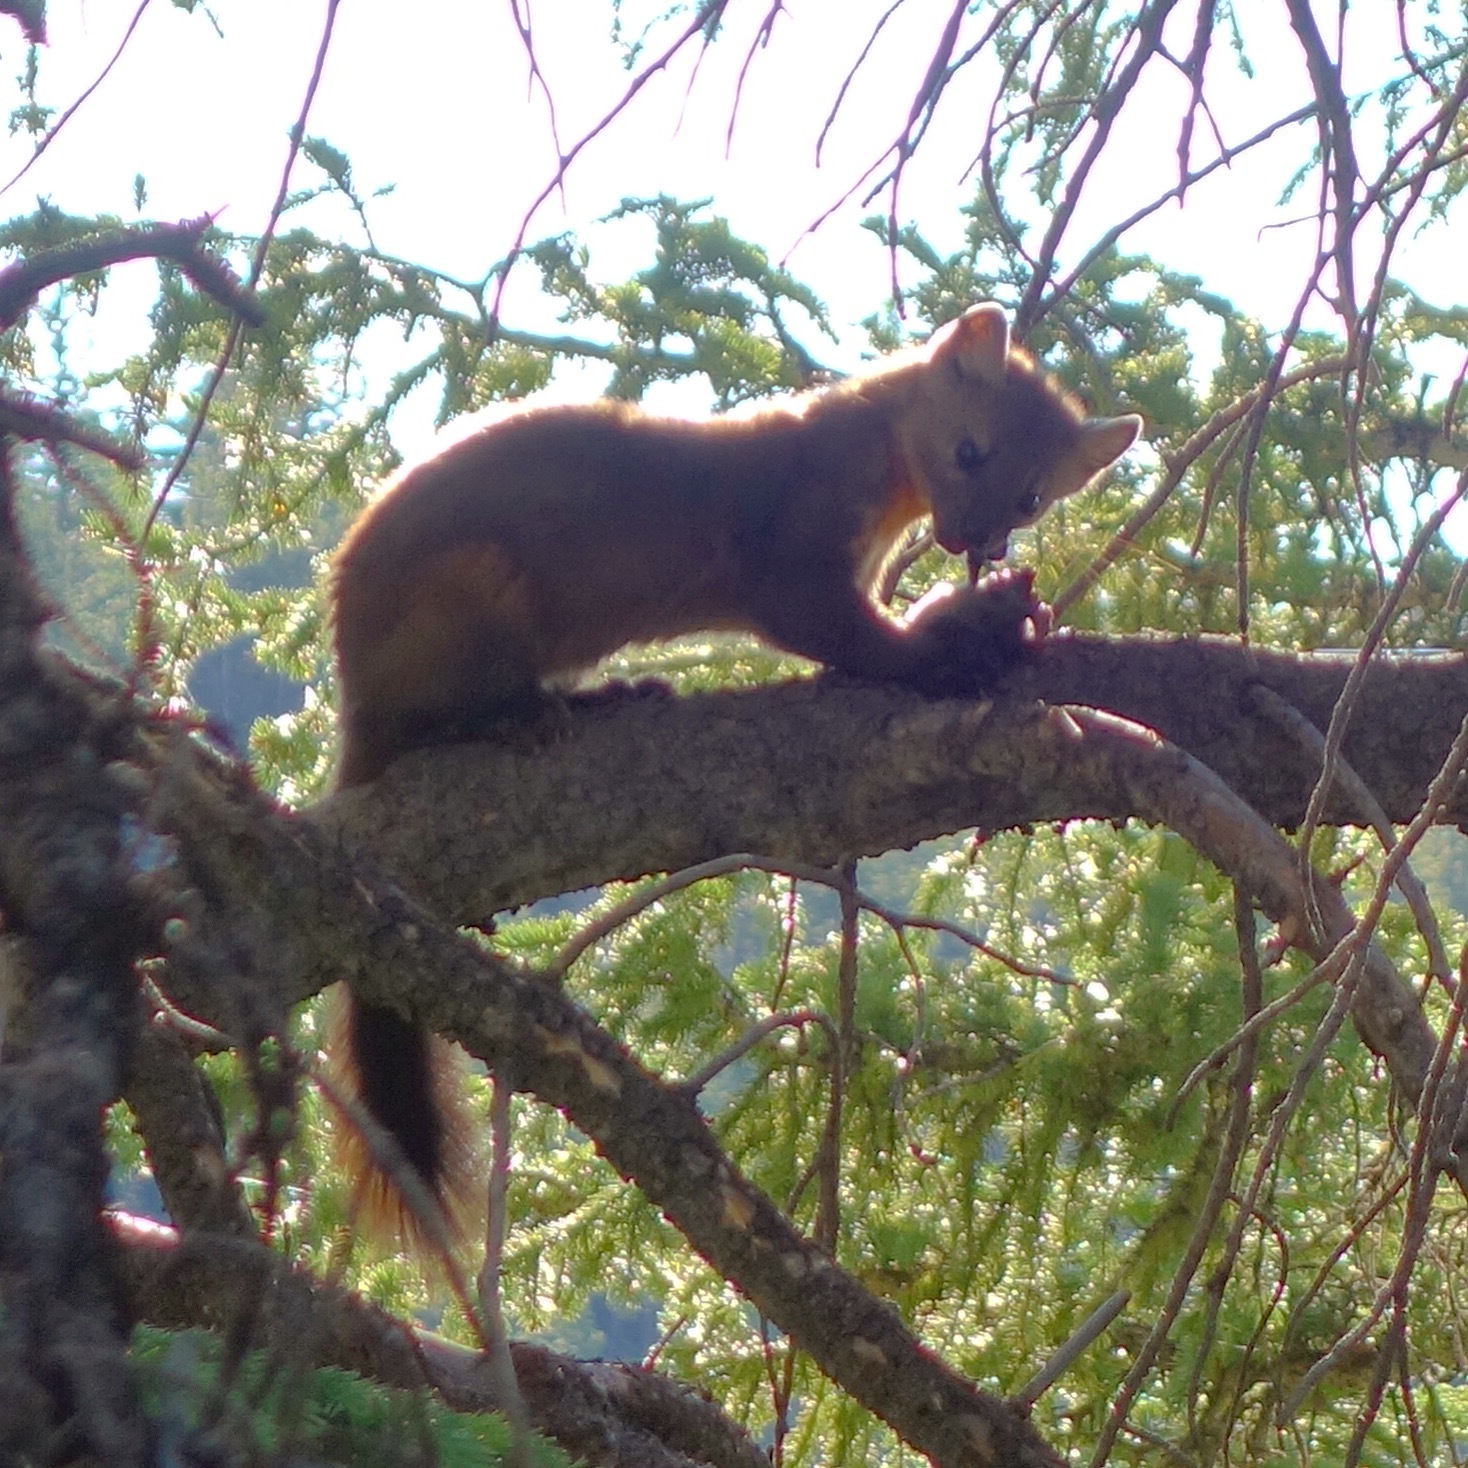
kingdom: Animalia
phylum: Chordata
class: Mammalia
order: Carnivora
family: Mustelidae
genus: Martes
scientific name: Martes caurina
